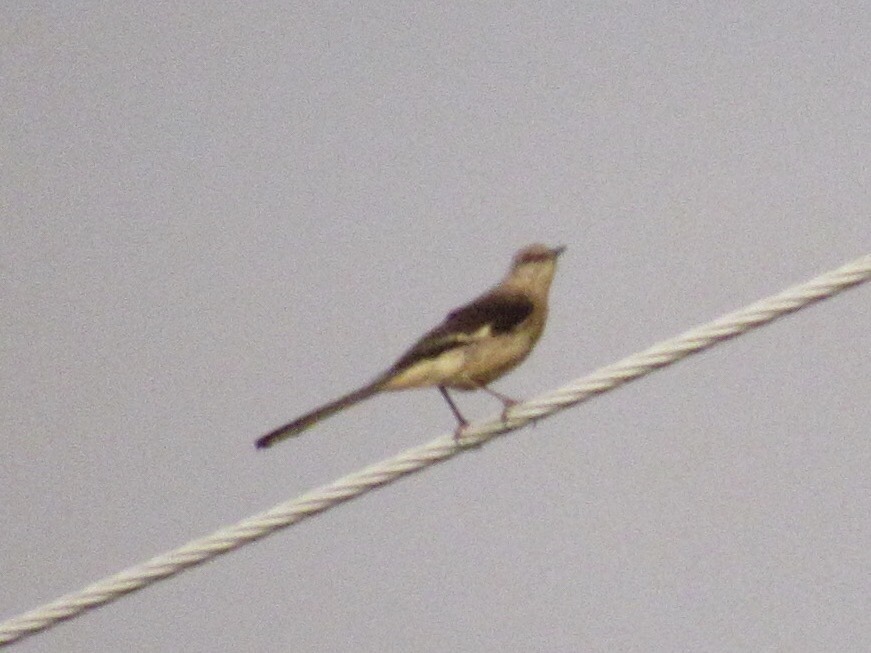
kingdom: Animalia
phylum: Chordata
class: Aves
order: Passeriformes
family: Mimidae
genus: Mimus
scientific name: Mimus polyglottos
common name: Northern mockingbird
